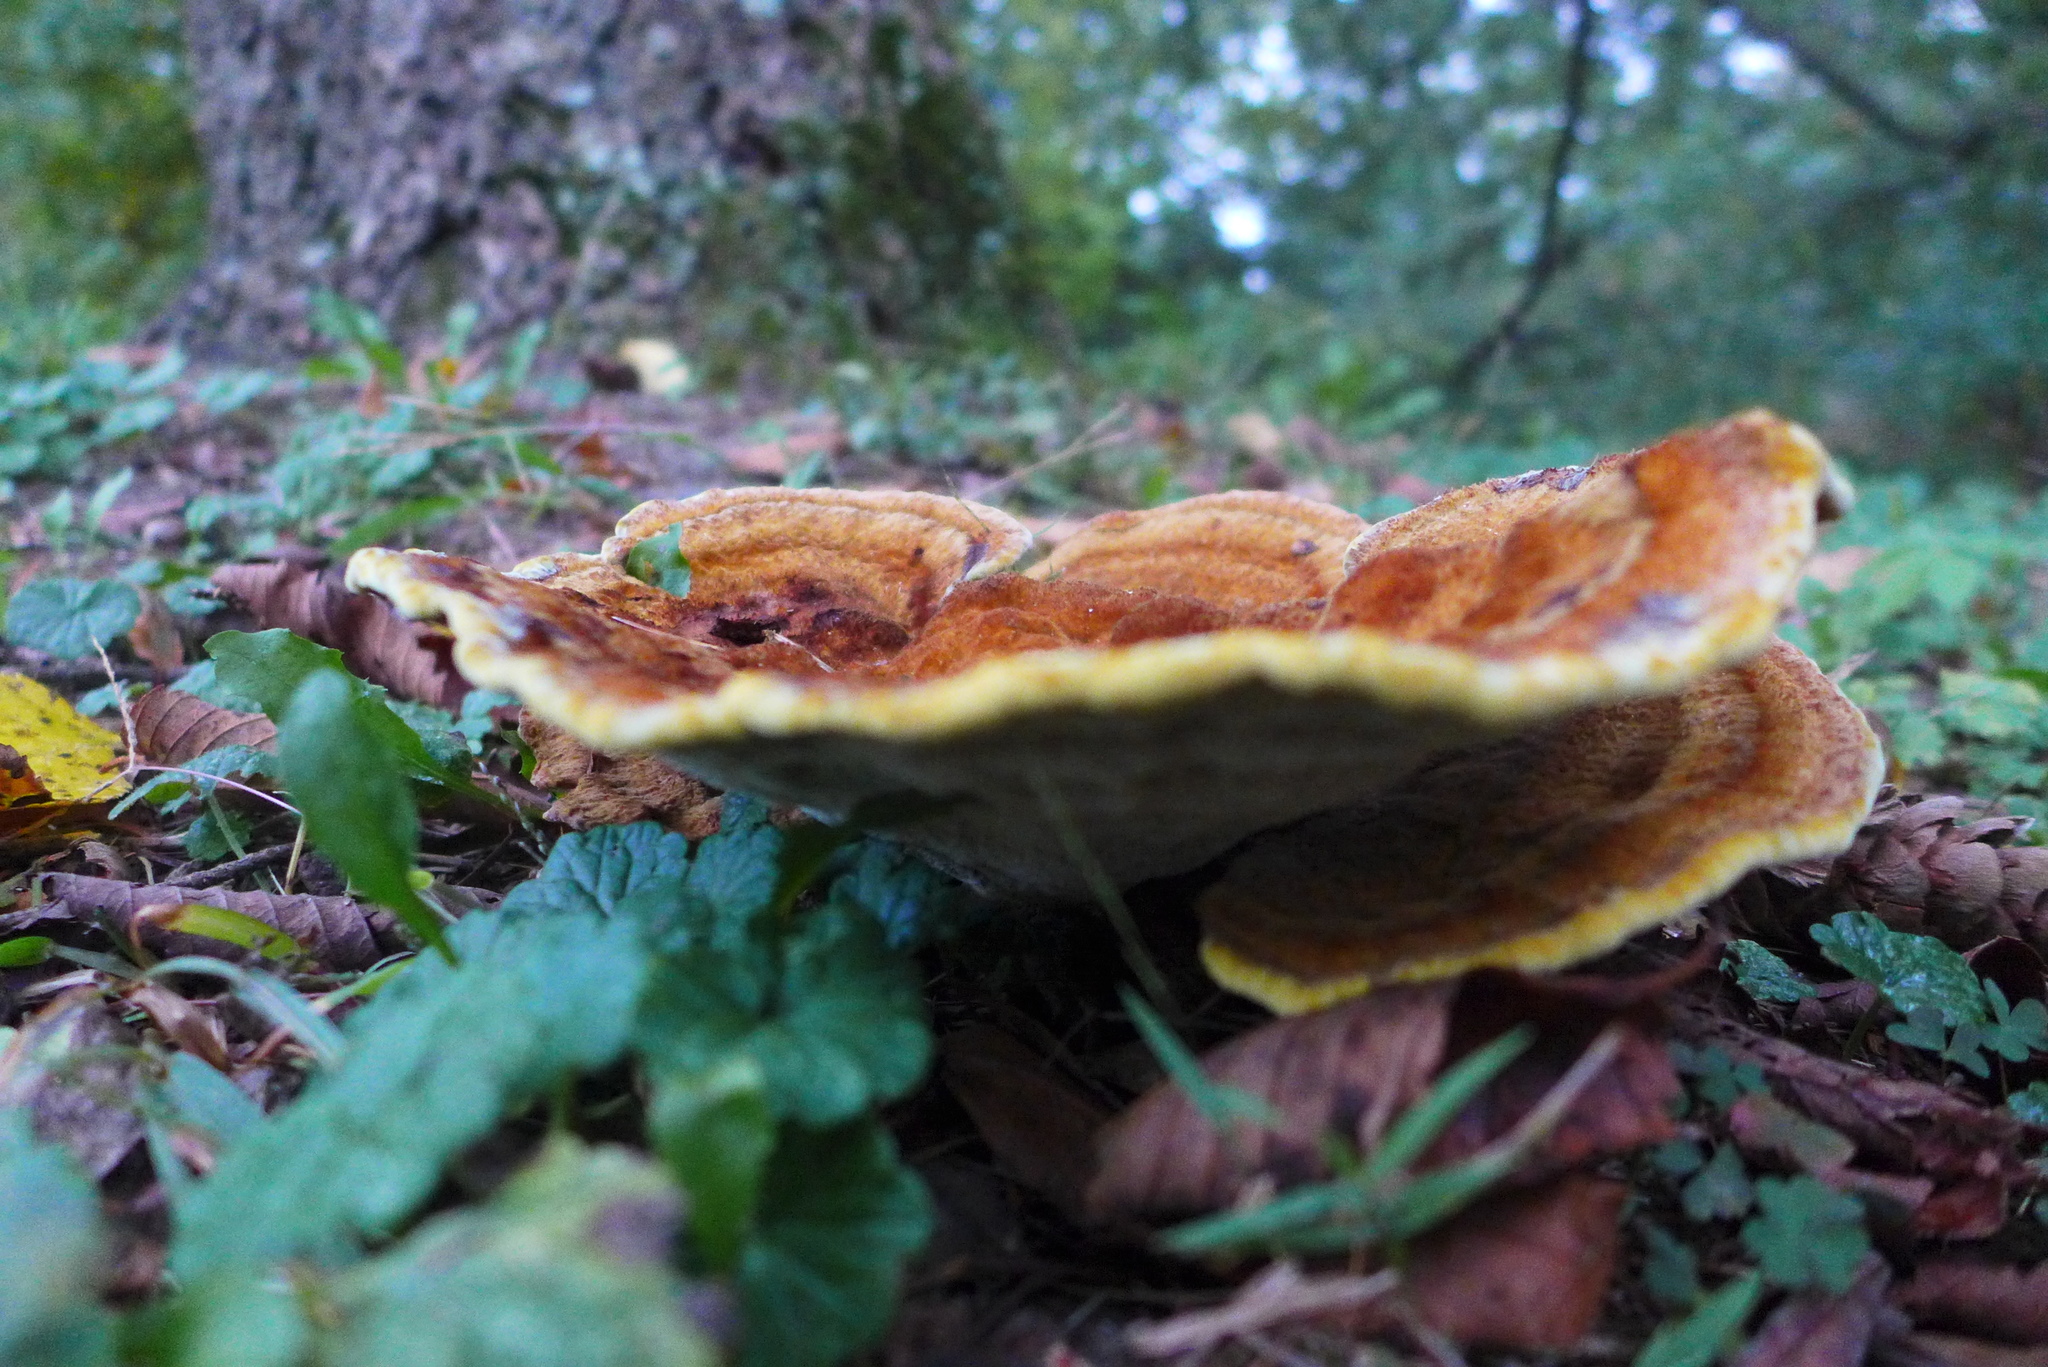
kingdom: Fungi
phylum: Basidiomycota
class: Agaricomycetes
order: Polyporales
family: Laetiporaceae
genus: Phaeolus
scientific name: Phaeolus schweinitzii
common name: Dyer's mazegill
